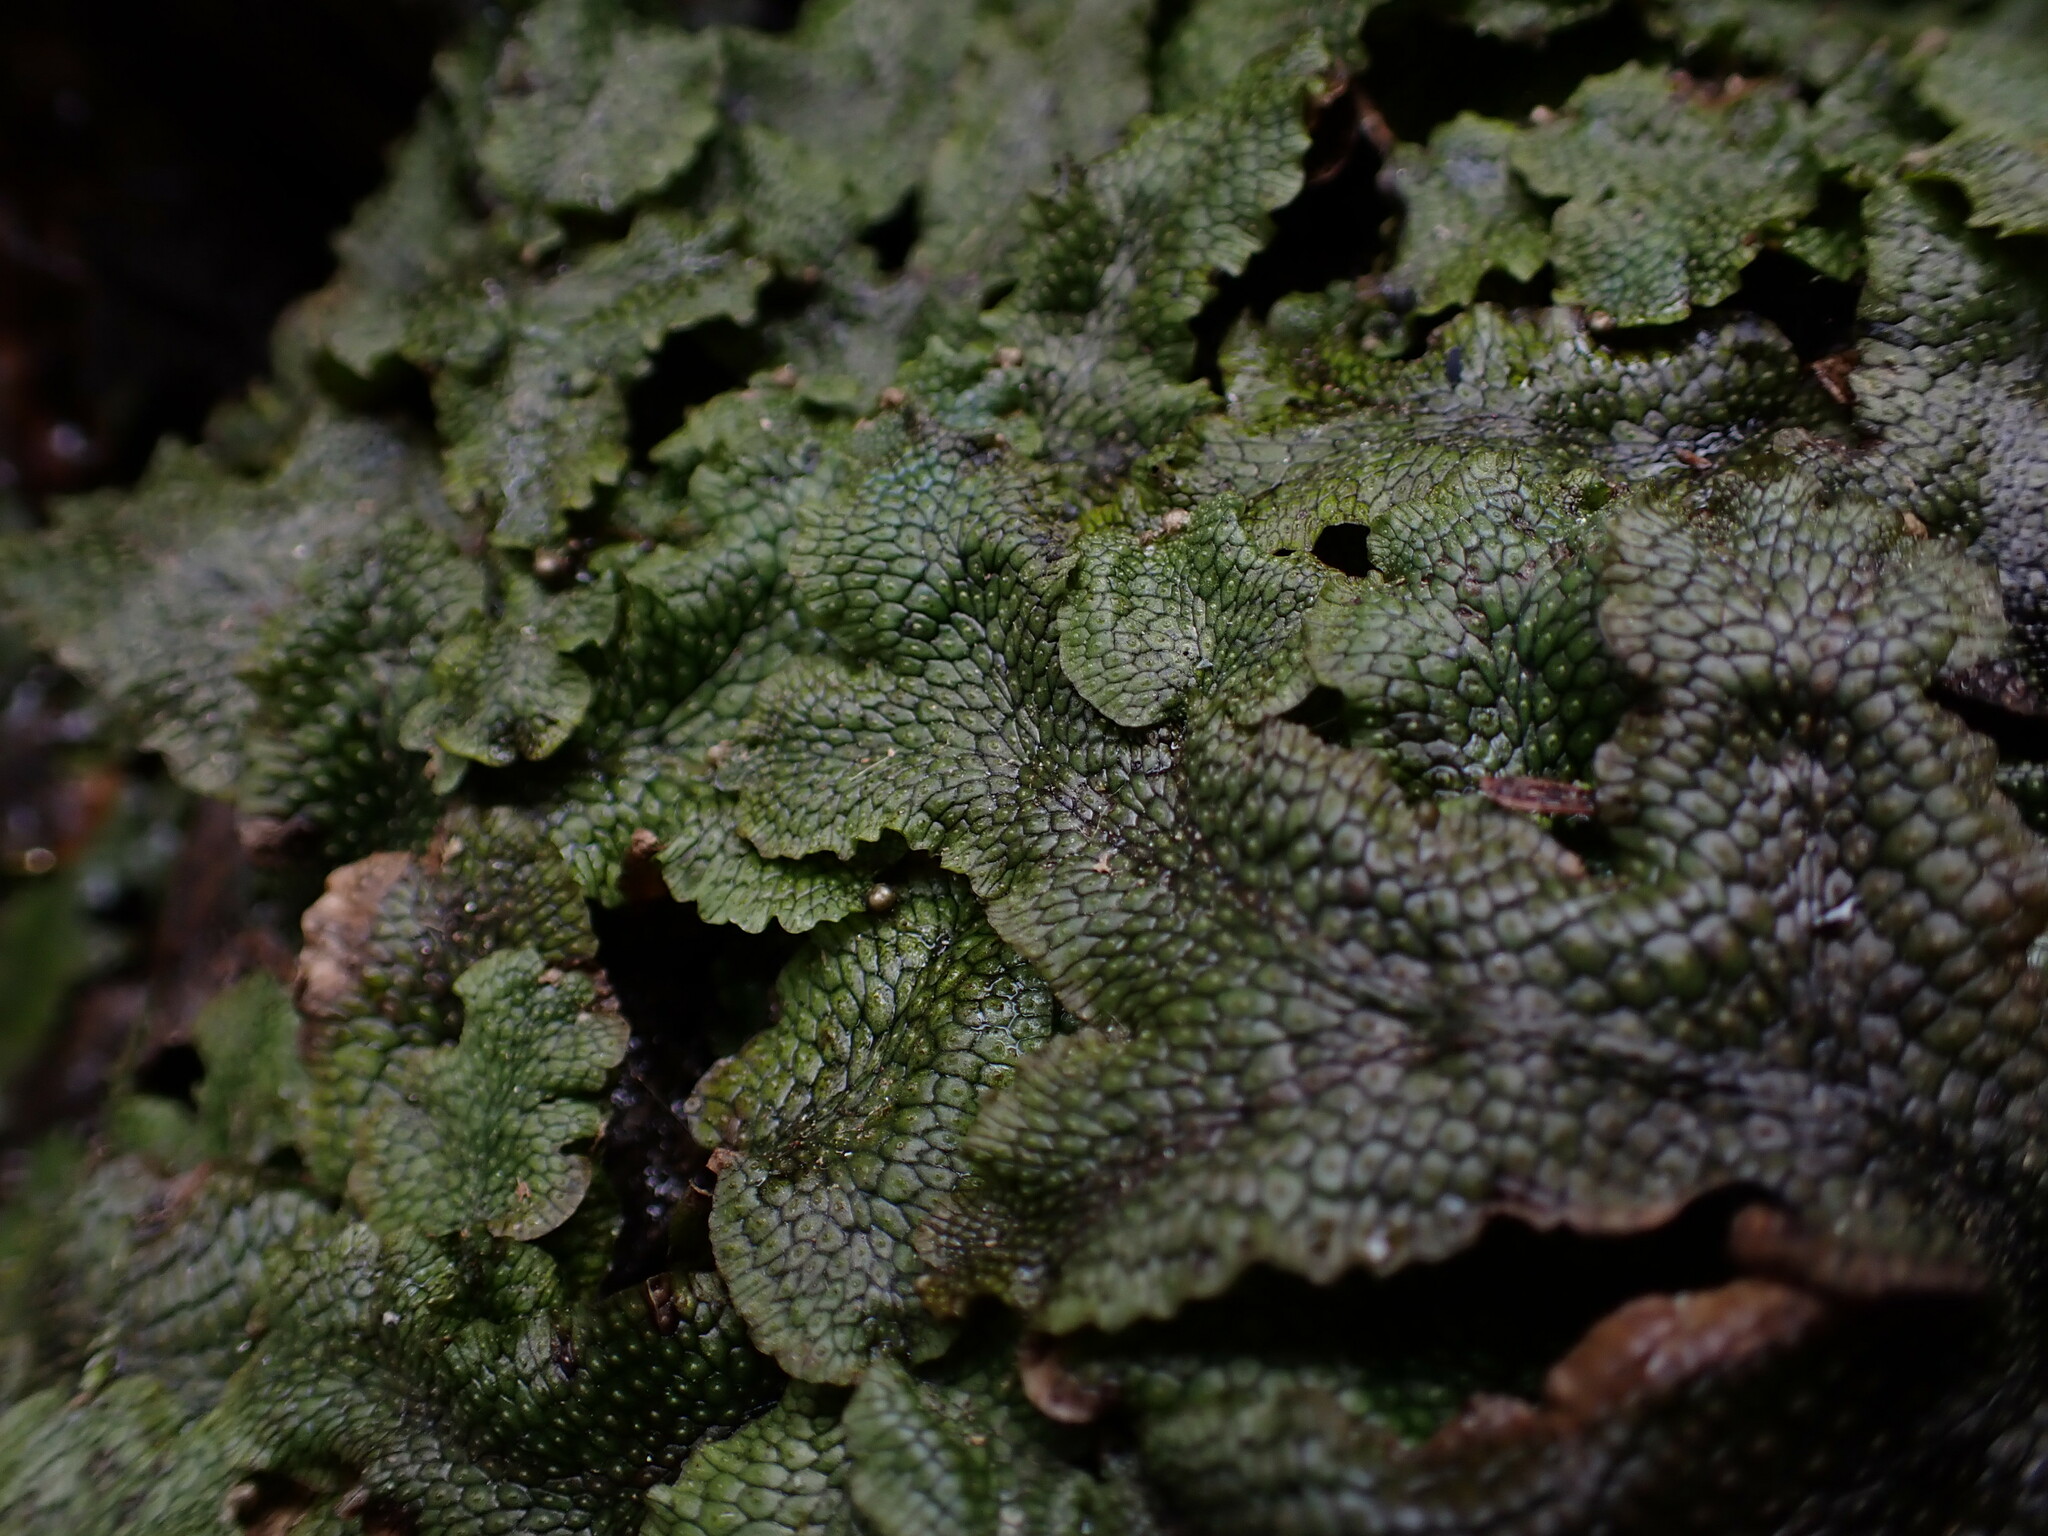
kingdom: Plantae
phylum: Marchantiophyta
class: Marchantiopsida
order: Marchantiales
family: Conocephalaceae
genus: Conocephalum
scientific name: Conocephalum salebrosum
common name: Cat-tongue liverwort
